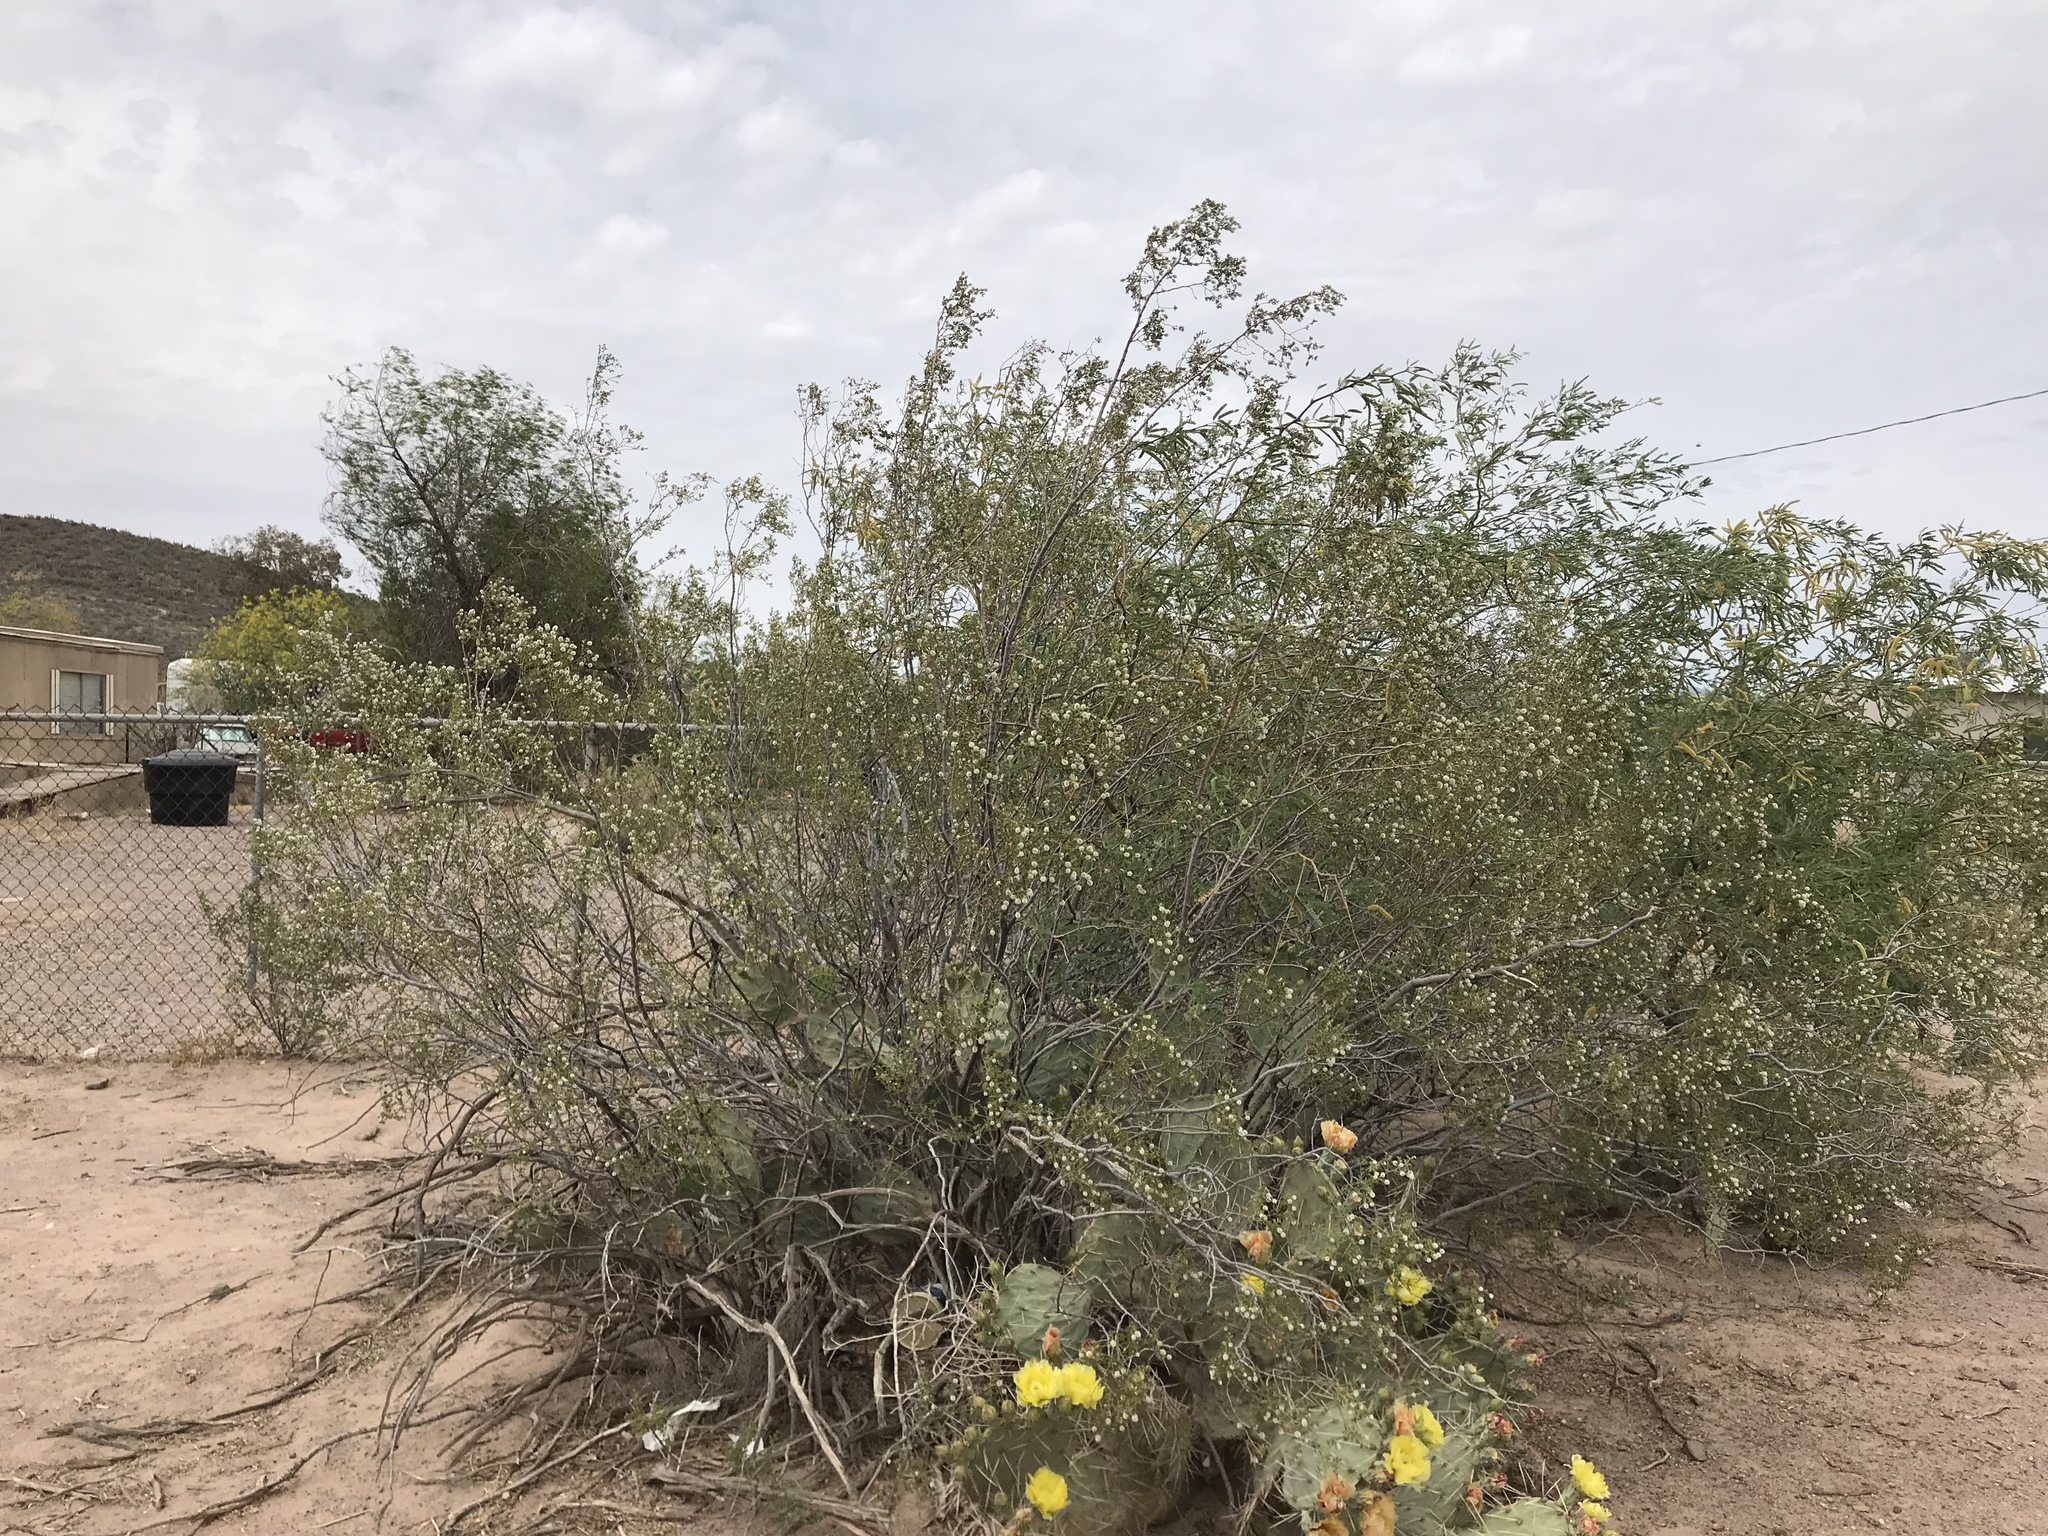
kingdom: Plantae
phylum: Tracheophyta
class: Magnoliopsida
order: Zygophyllales
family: Zygophyllaceae
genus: Larrea
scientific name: Larrea tridentata
